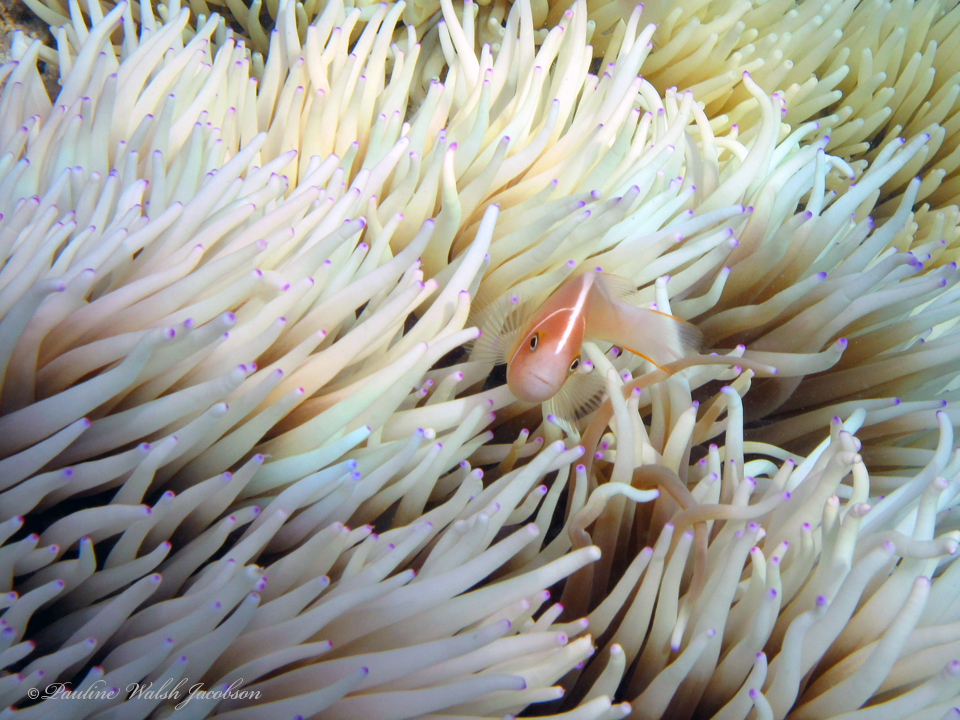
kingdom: Animalia
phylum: Chordata
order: Perciformes
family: Pomacentridae
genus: Amphiprion
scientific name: Amphiprion perideraion
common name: Pink anemonefish
